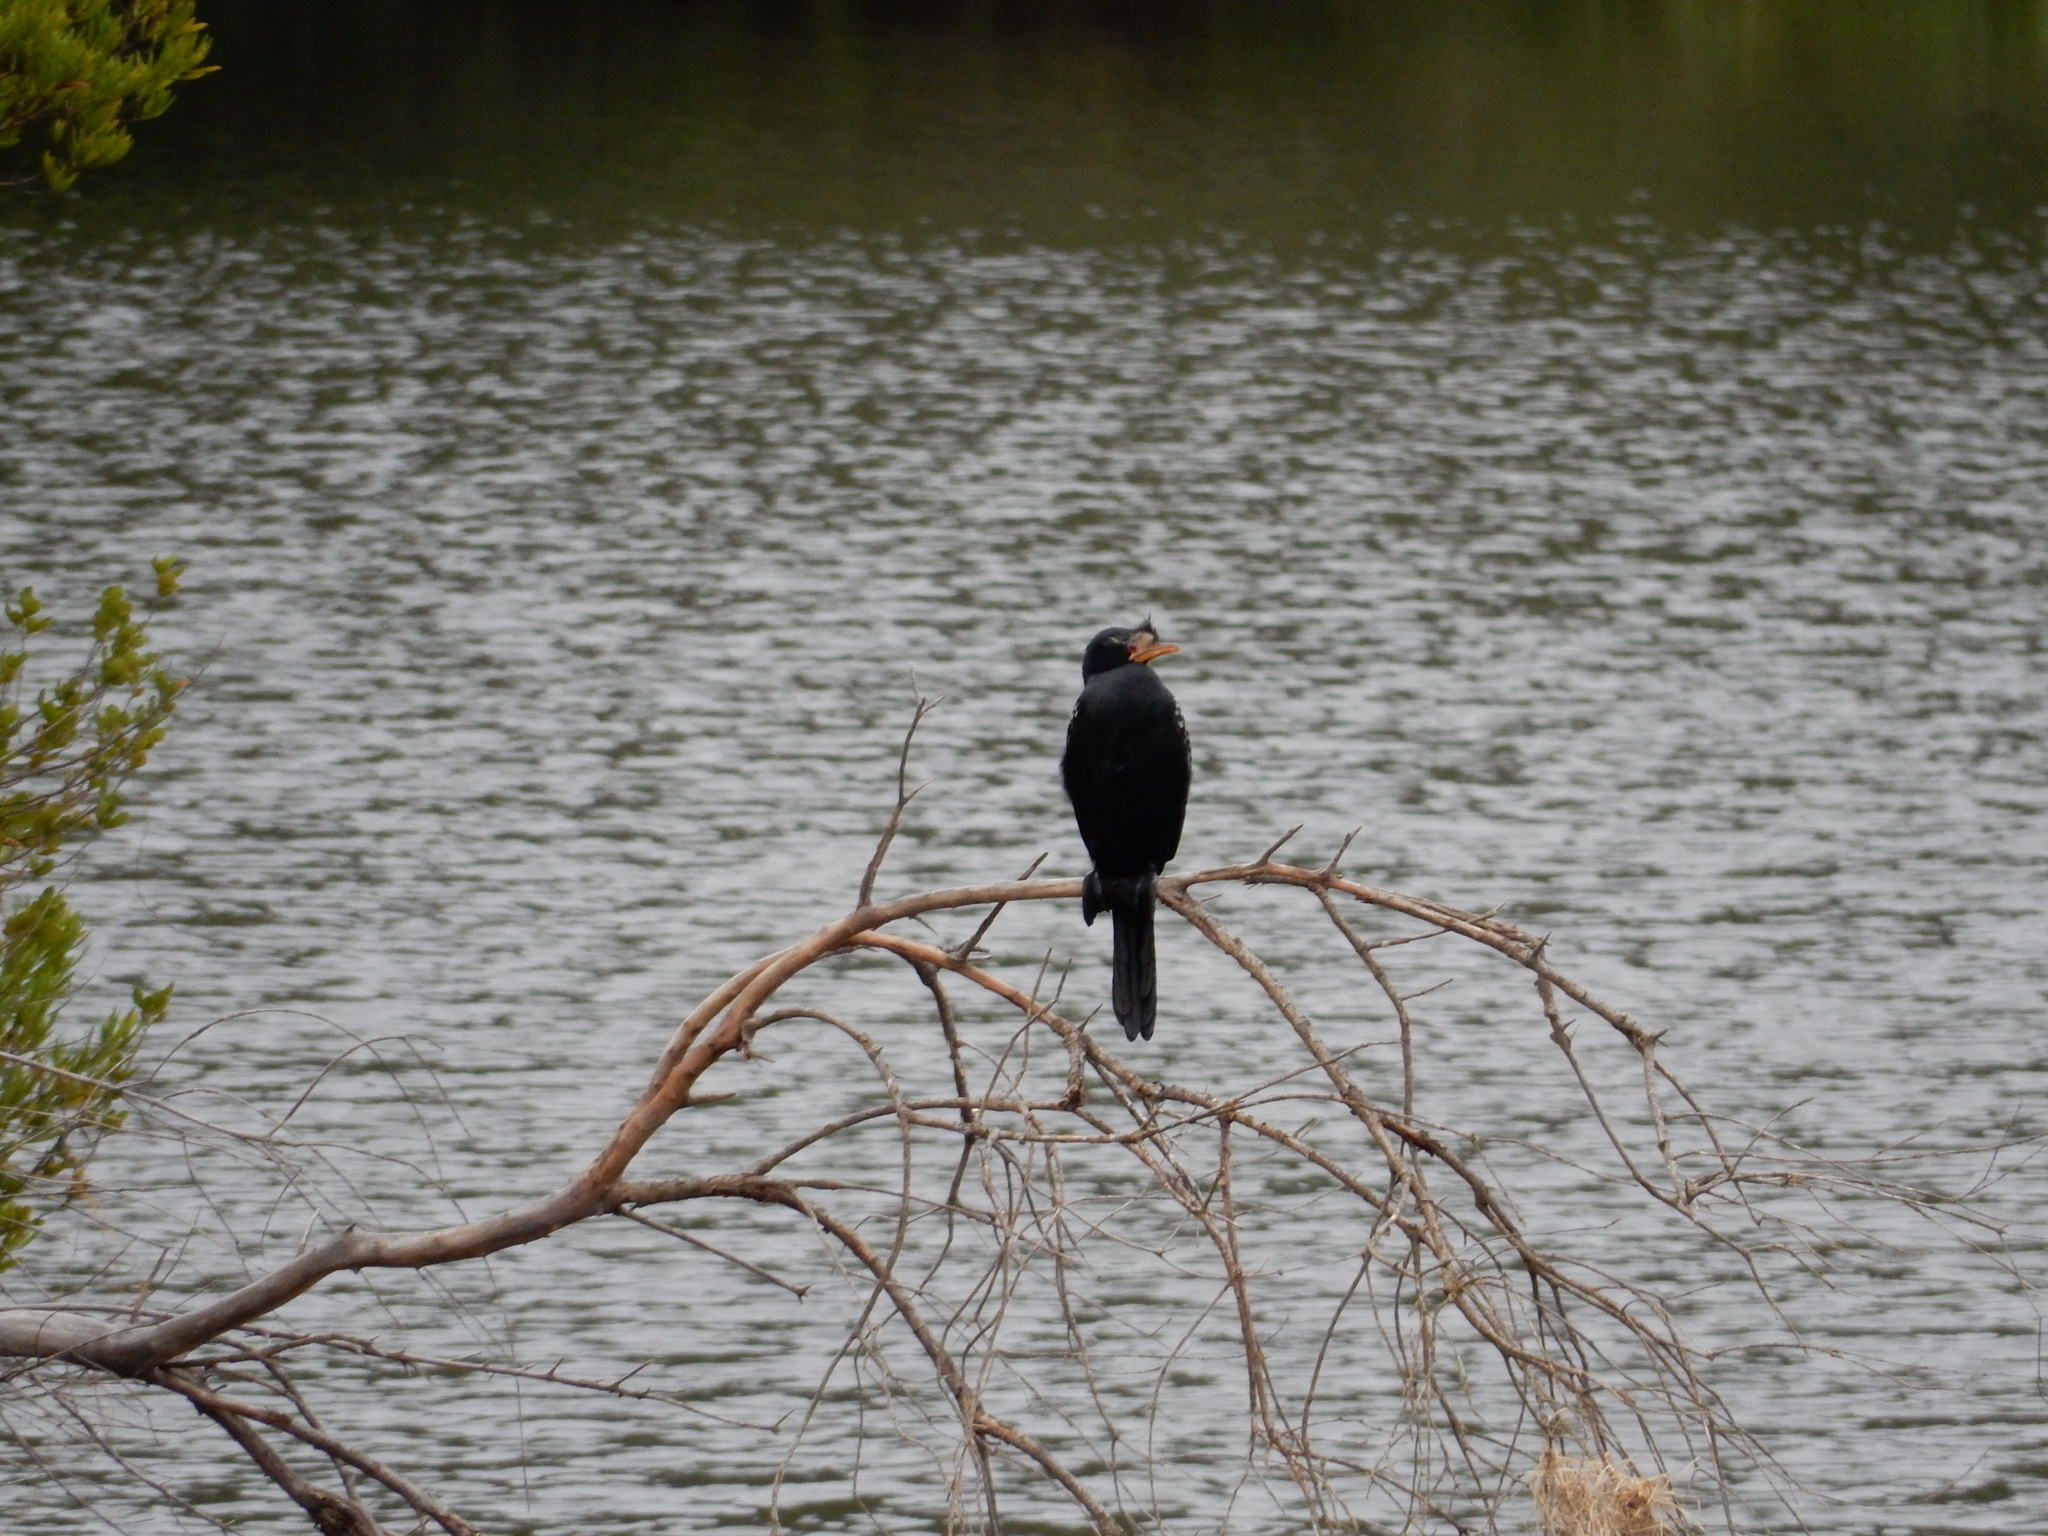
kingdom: Animalia
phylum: Chordata
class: Aves
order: Suliformes
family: Phalacrocoracidae
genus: Microcarbo
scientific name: Microcarbo africanus
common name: Long-tailed cormorant
